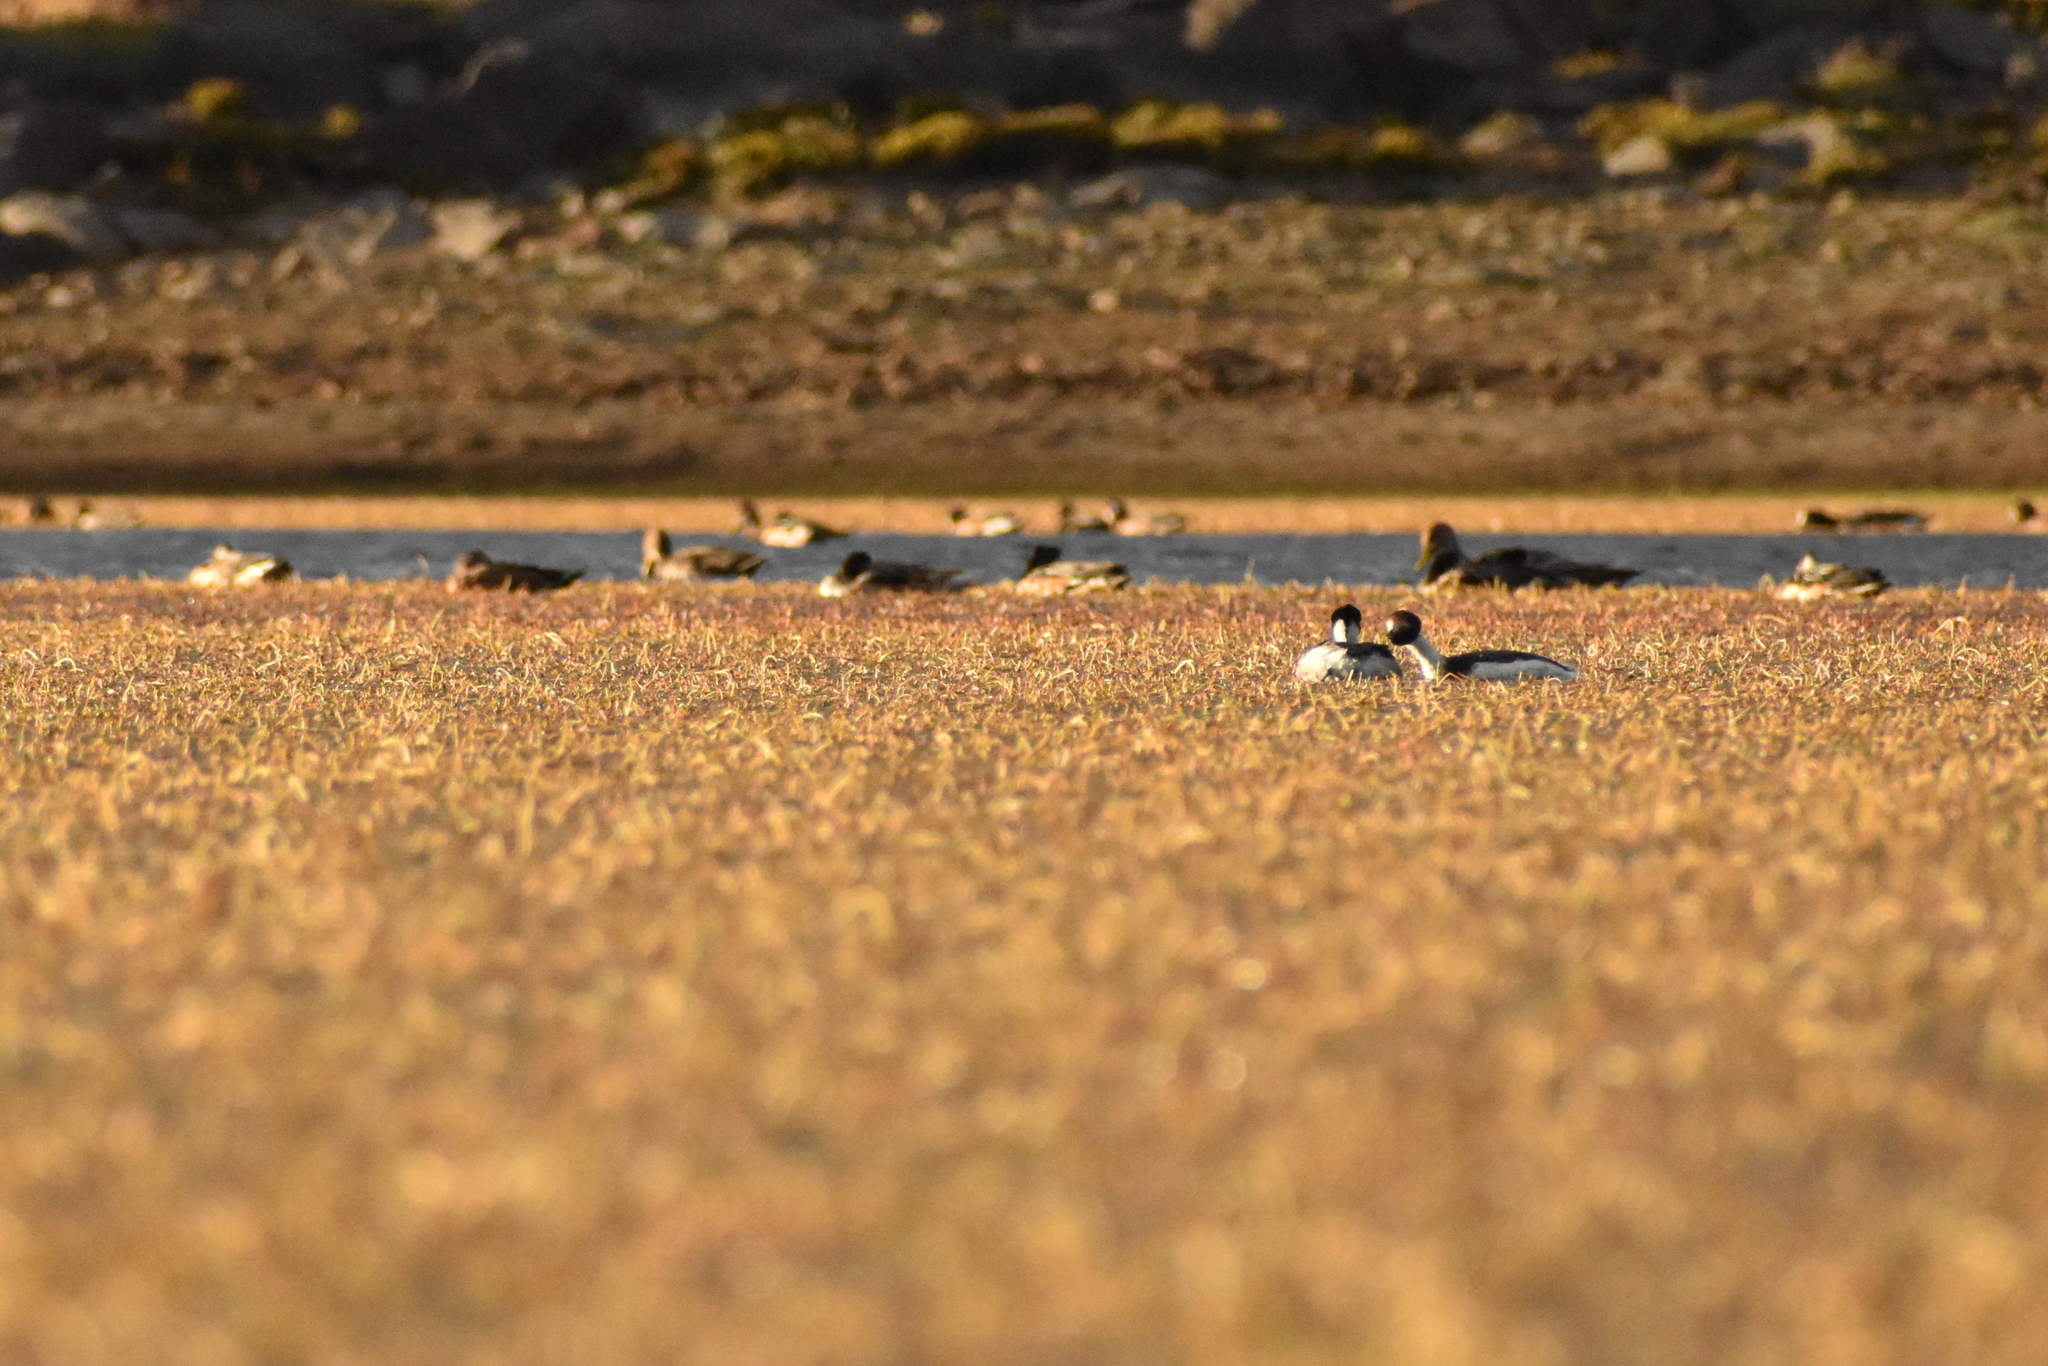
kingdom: Animalia
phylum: Chordata
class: Aves
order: Podicipediformes
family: Podicipedidae
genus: Podiceps
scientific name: Podiceps gallardoi
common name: Hooded grebe
